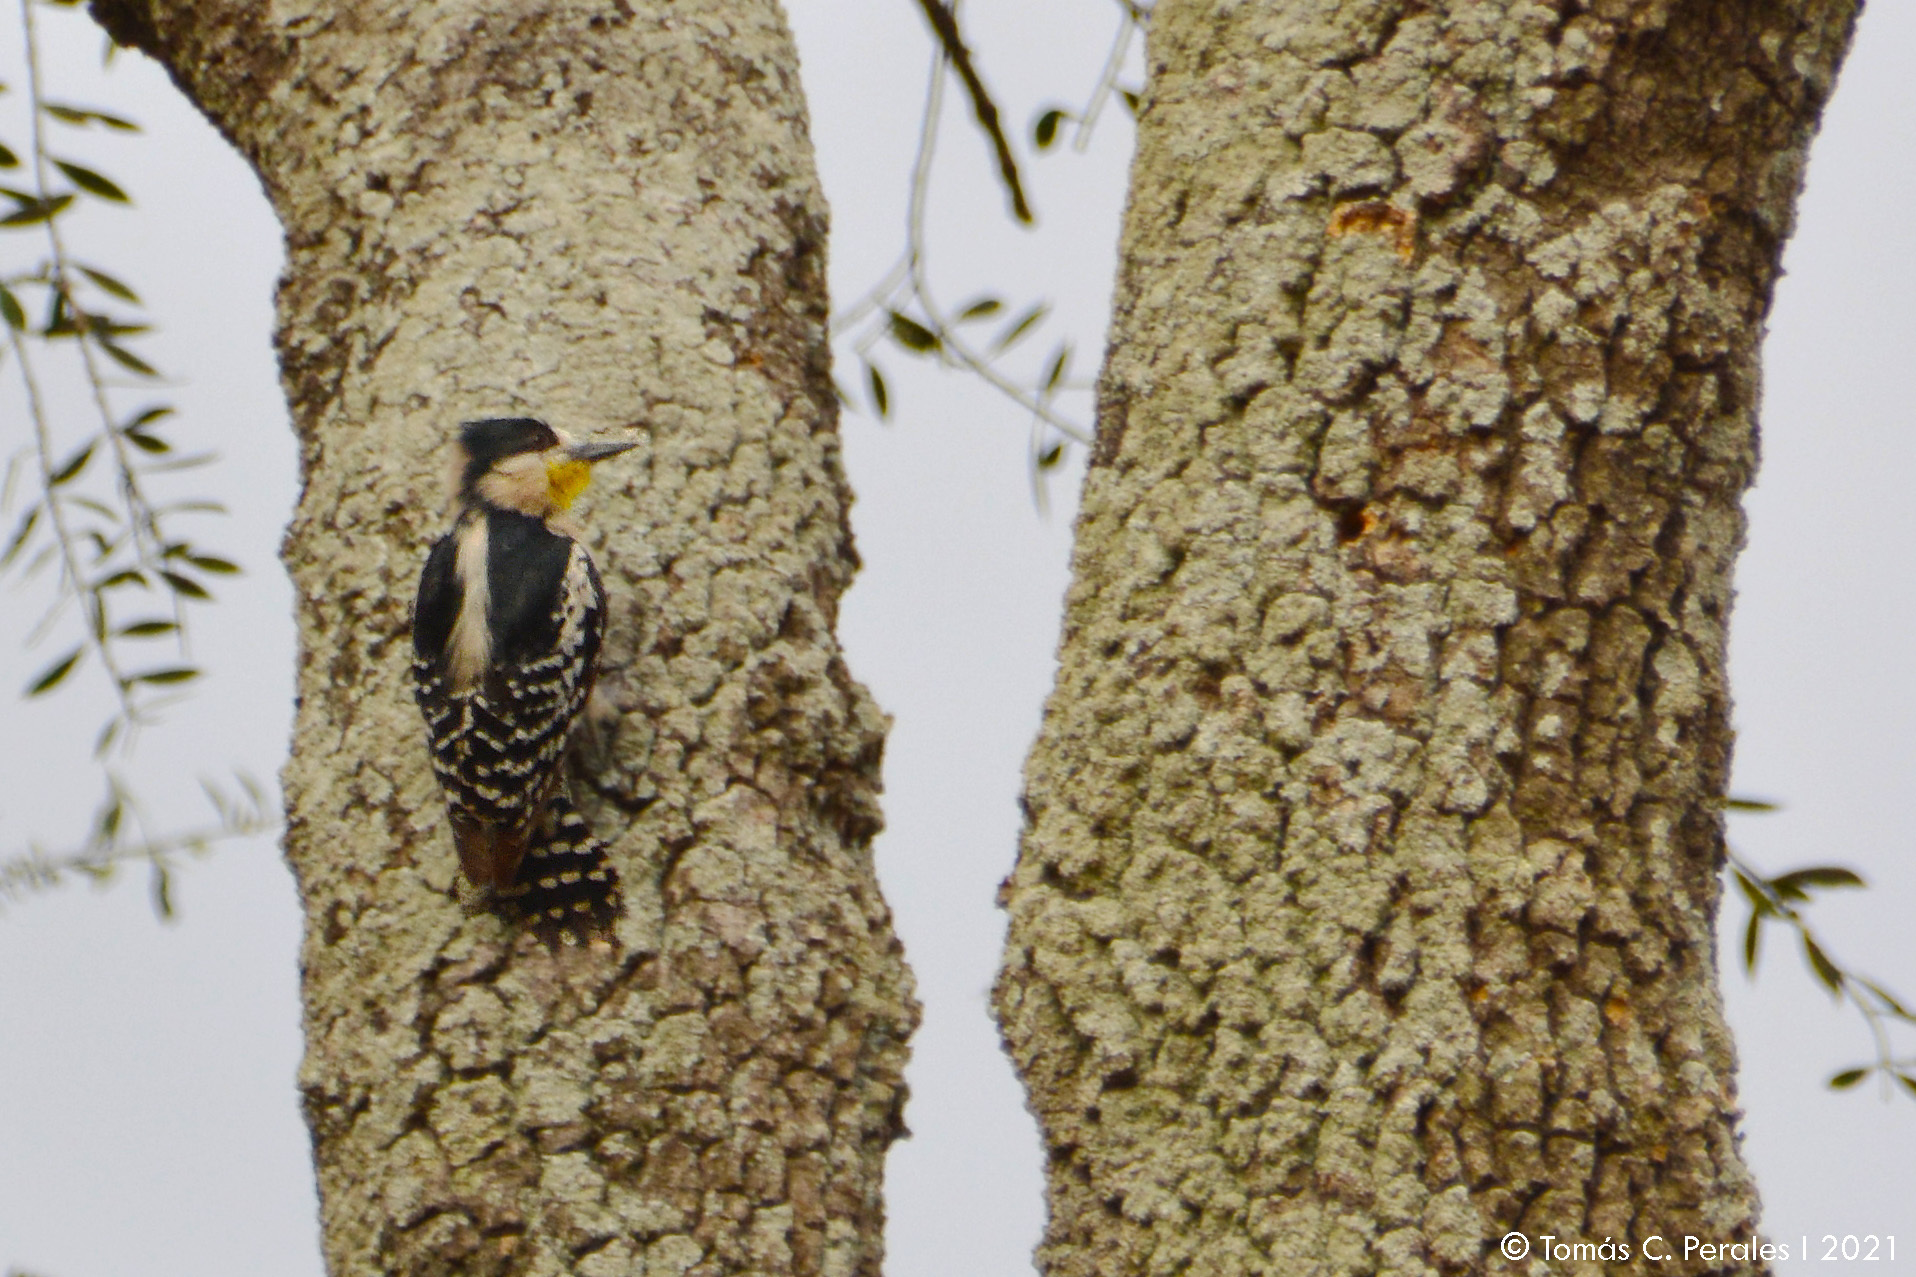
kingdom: Animalia
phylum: Chordata
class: Aves
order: Piciformes
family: Picidae
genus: Melanerpes
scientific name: Melanerpes cactorum
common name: White-fronted woodpecker
